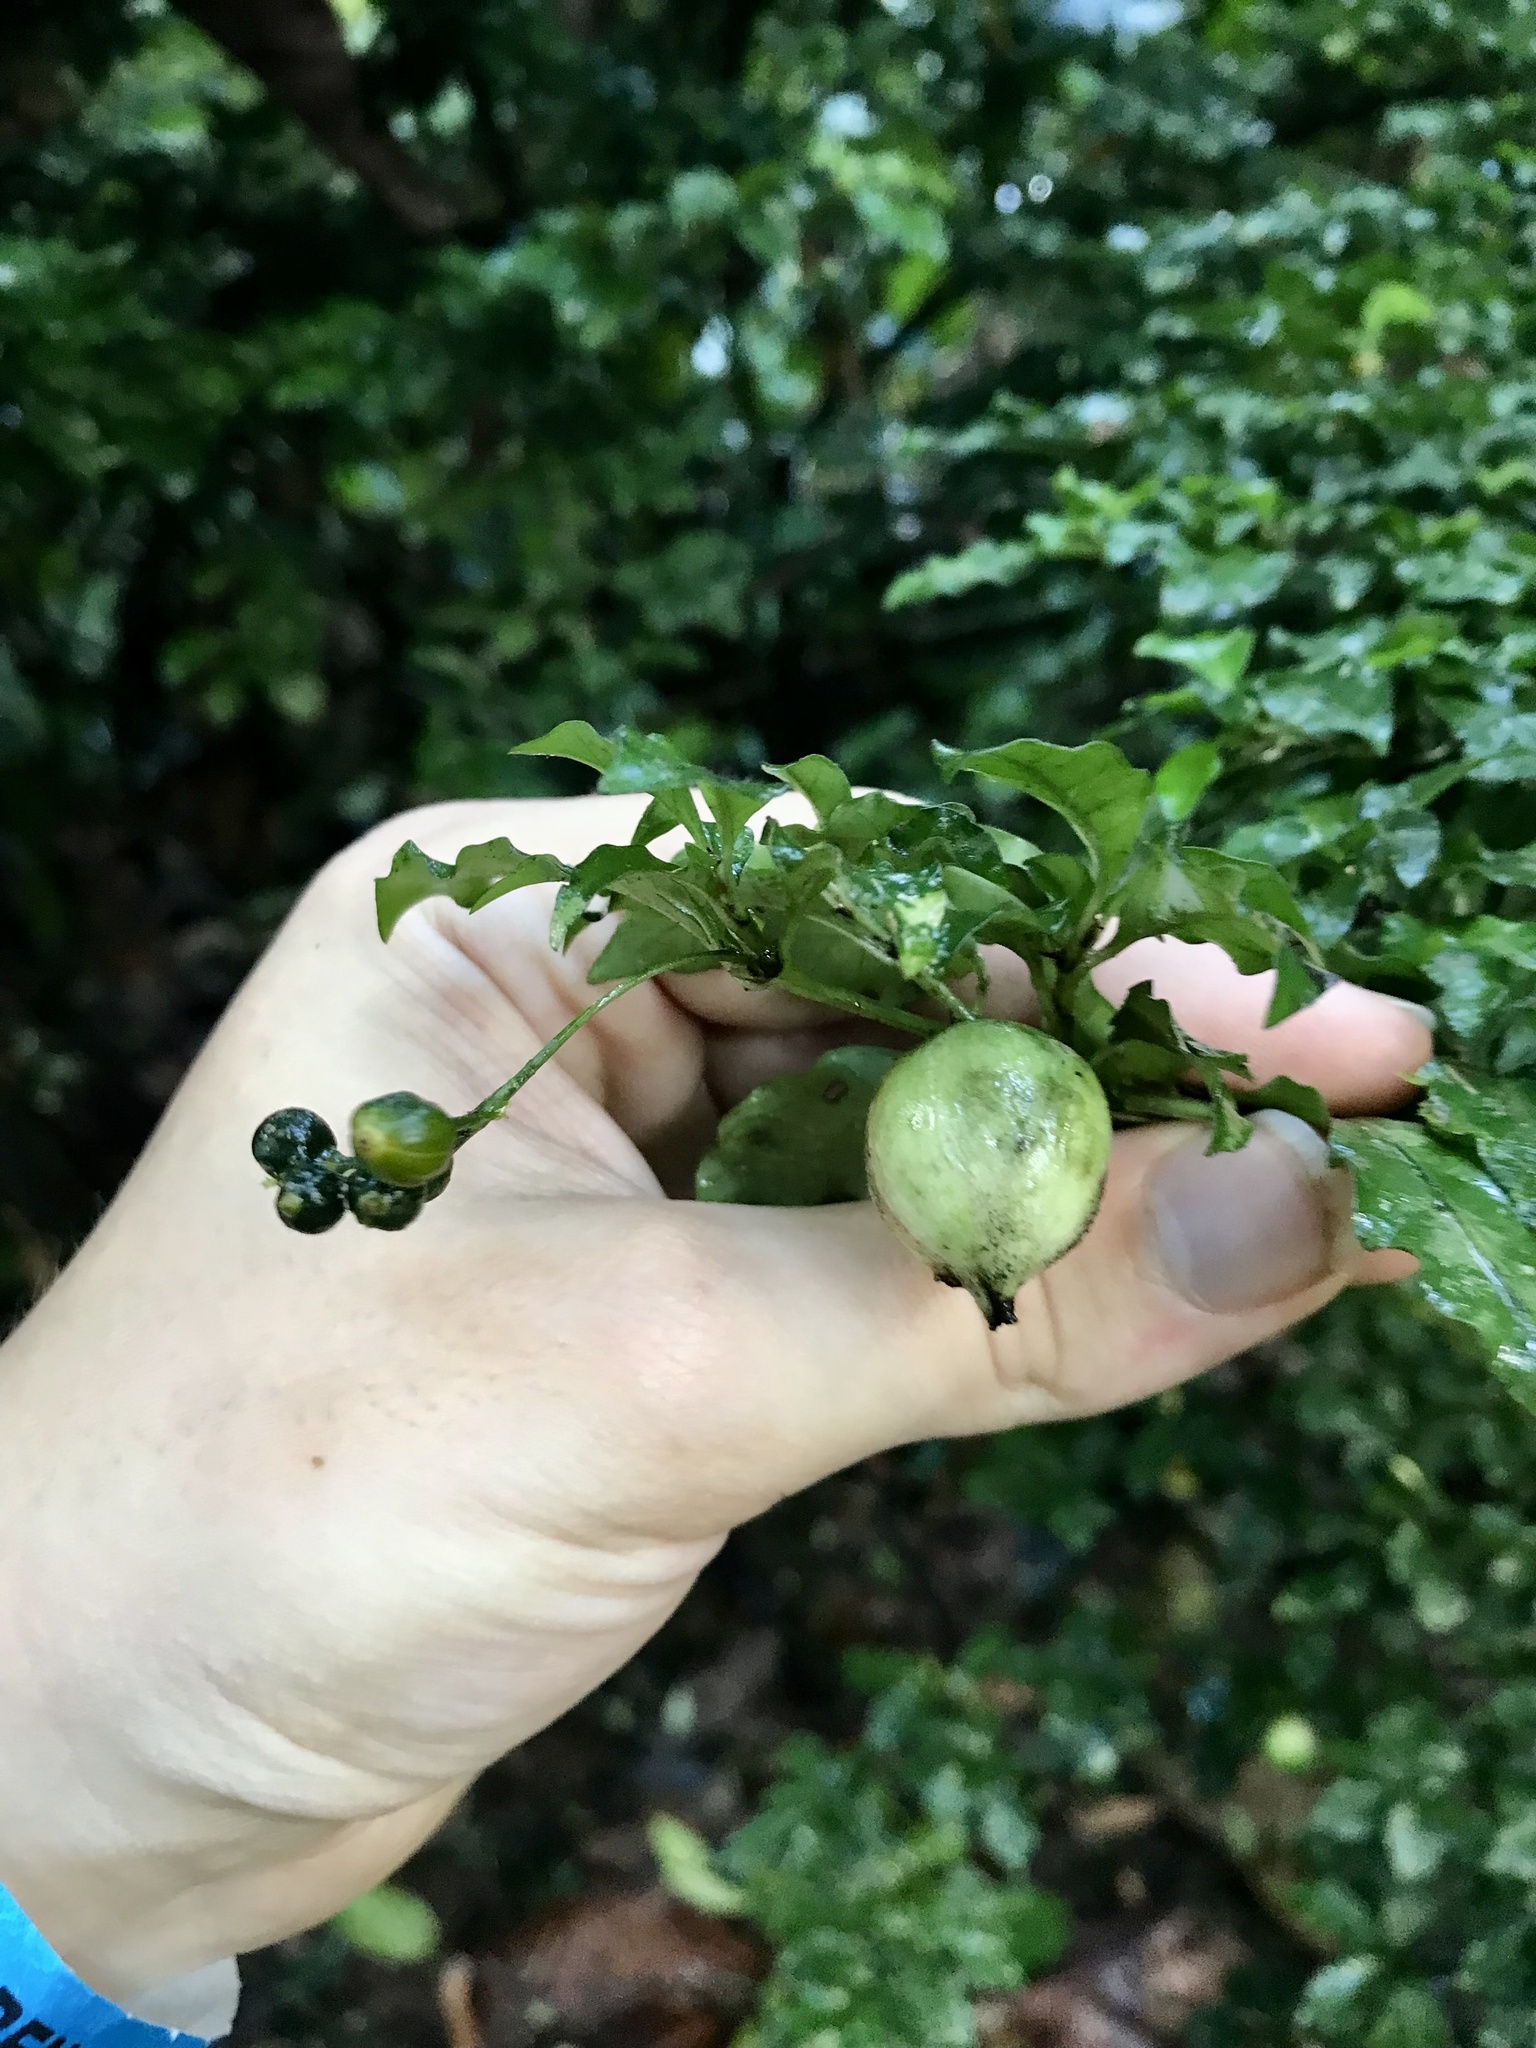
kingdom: Plantae
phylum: Tracheophyta
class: Magnoliopsida
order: Gentianales
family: Rubiaceae
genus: Psychotria
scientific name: Psychotria biaristata
